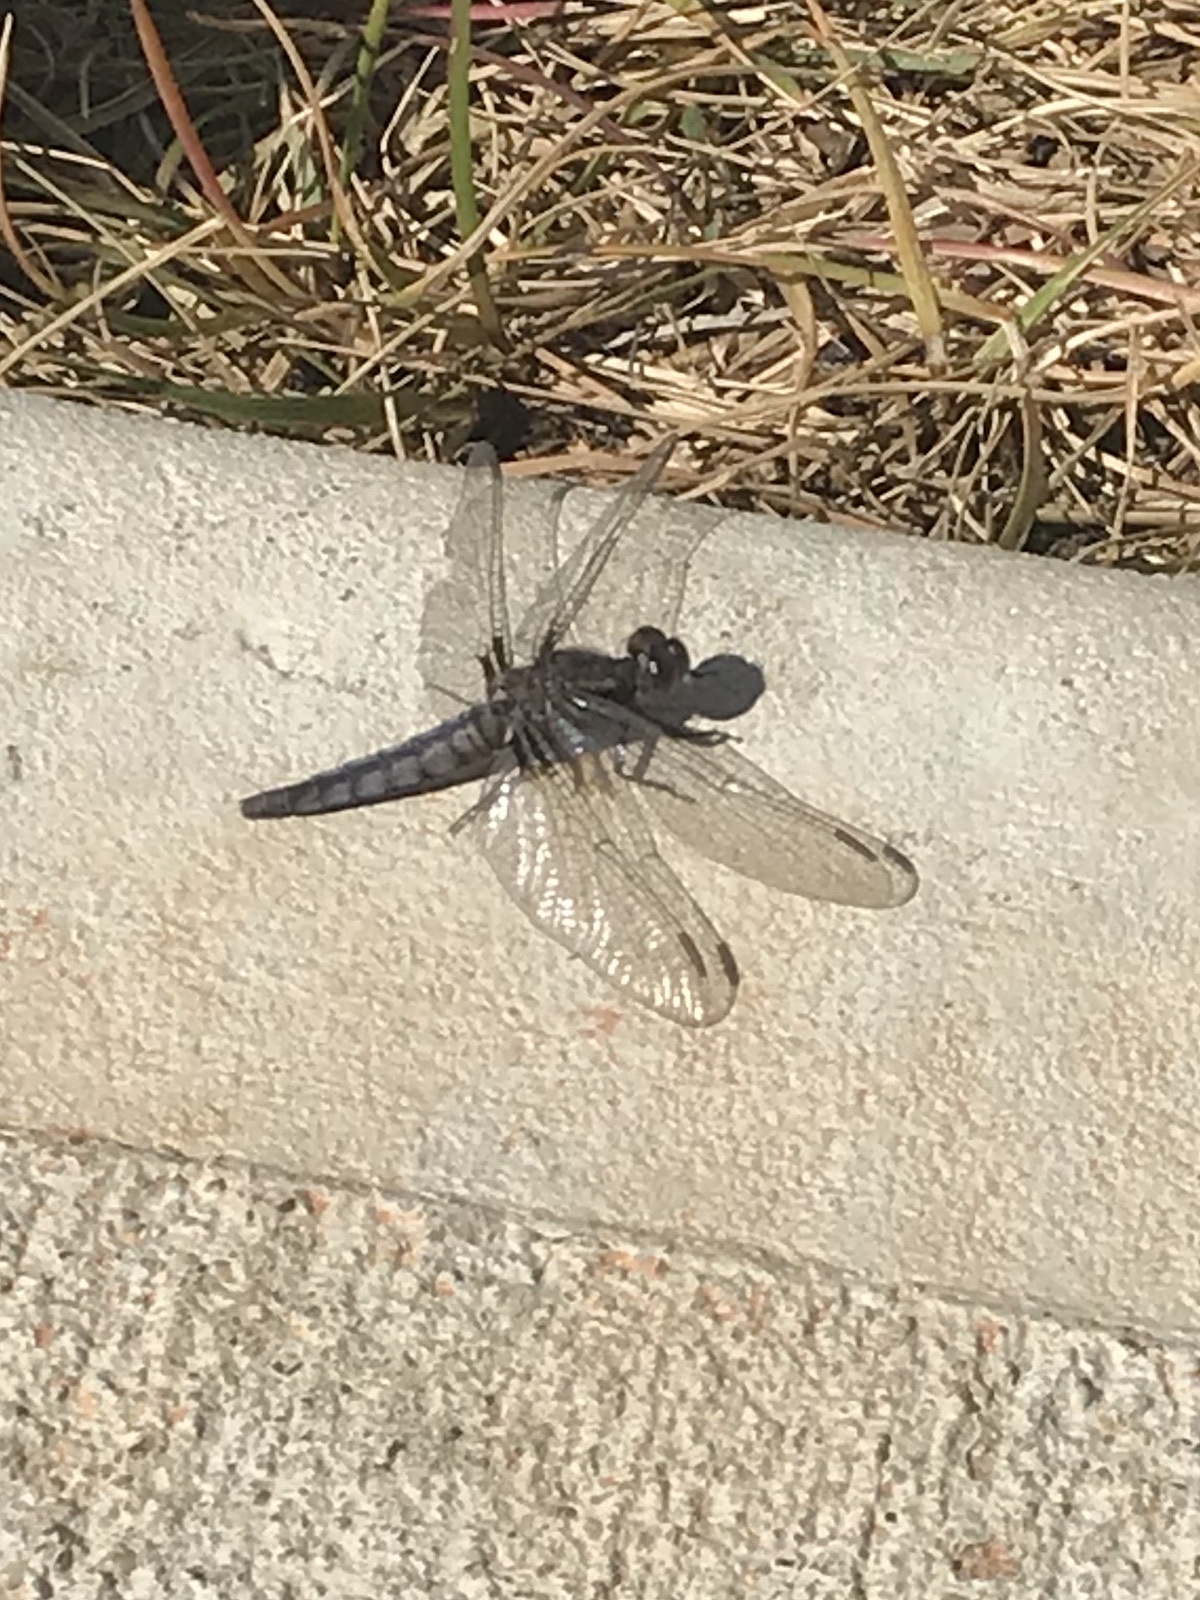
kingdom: Animalia
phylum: Arthropoda
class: Insecta
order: Odonata
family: Libellulidae
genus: Ladona
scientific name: Ladona deplanata
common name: Blue corporal
